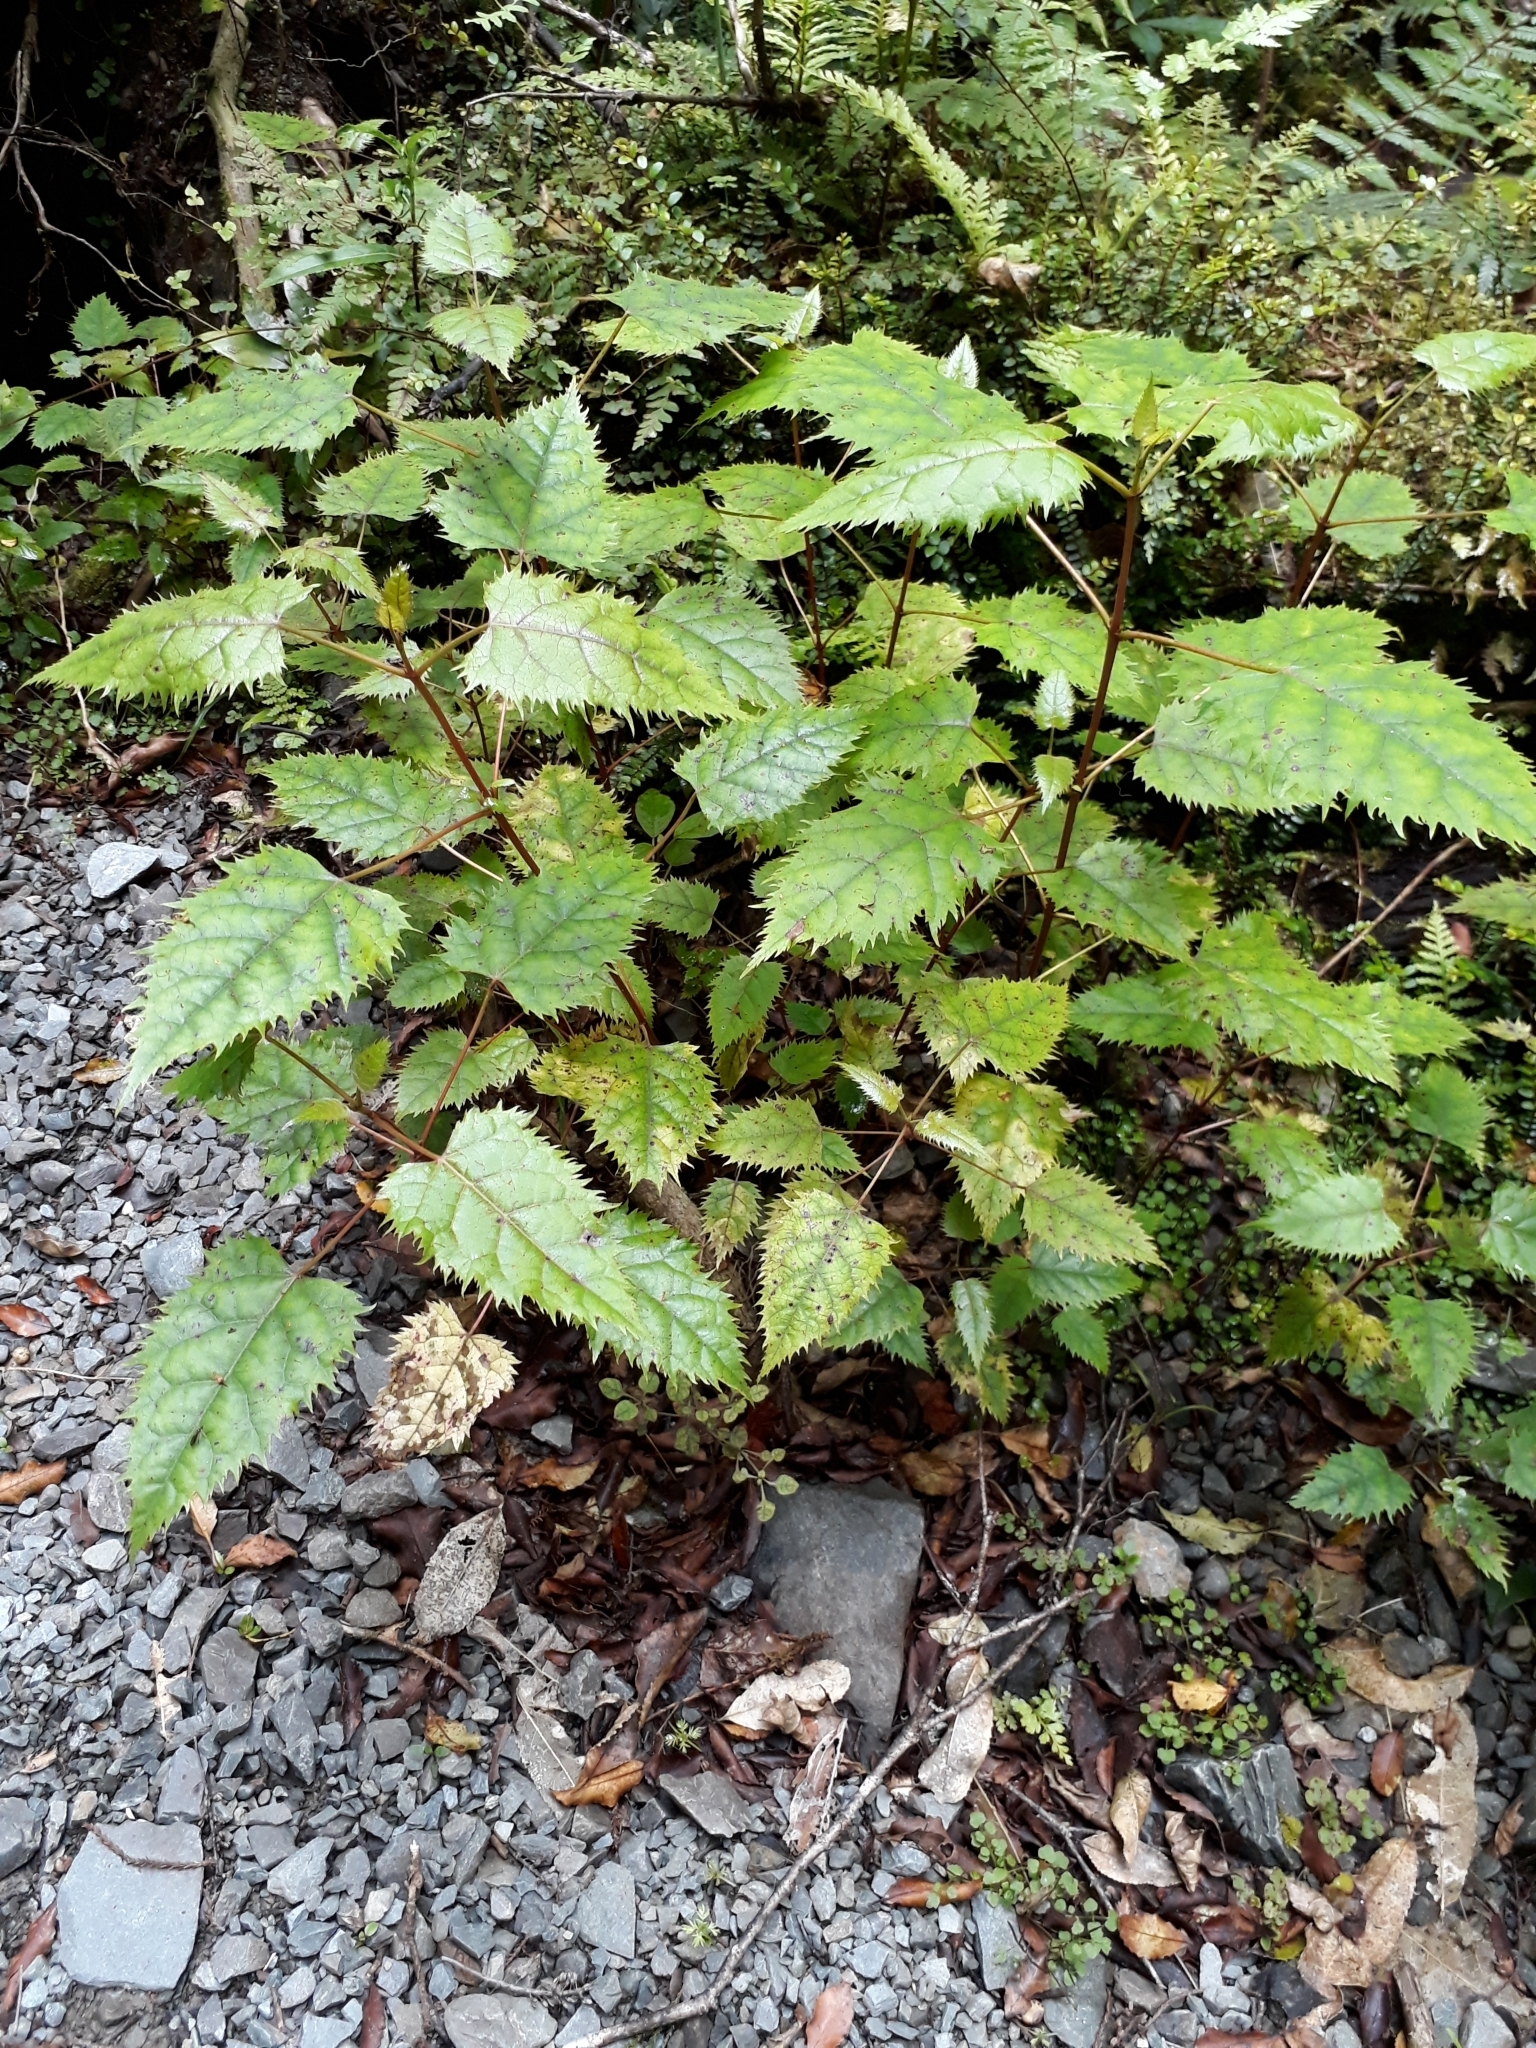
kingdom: Plantae
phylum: Tracheophyta
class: Magnoliopsida
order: Oxalidales
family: Elaeocarpaceae
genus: Aristotelia
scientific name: Aristotelia serrata
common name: New zealand wineberry
